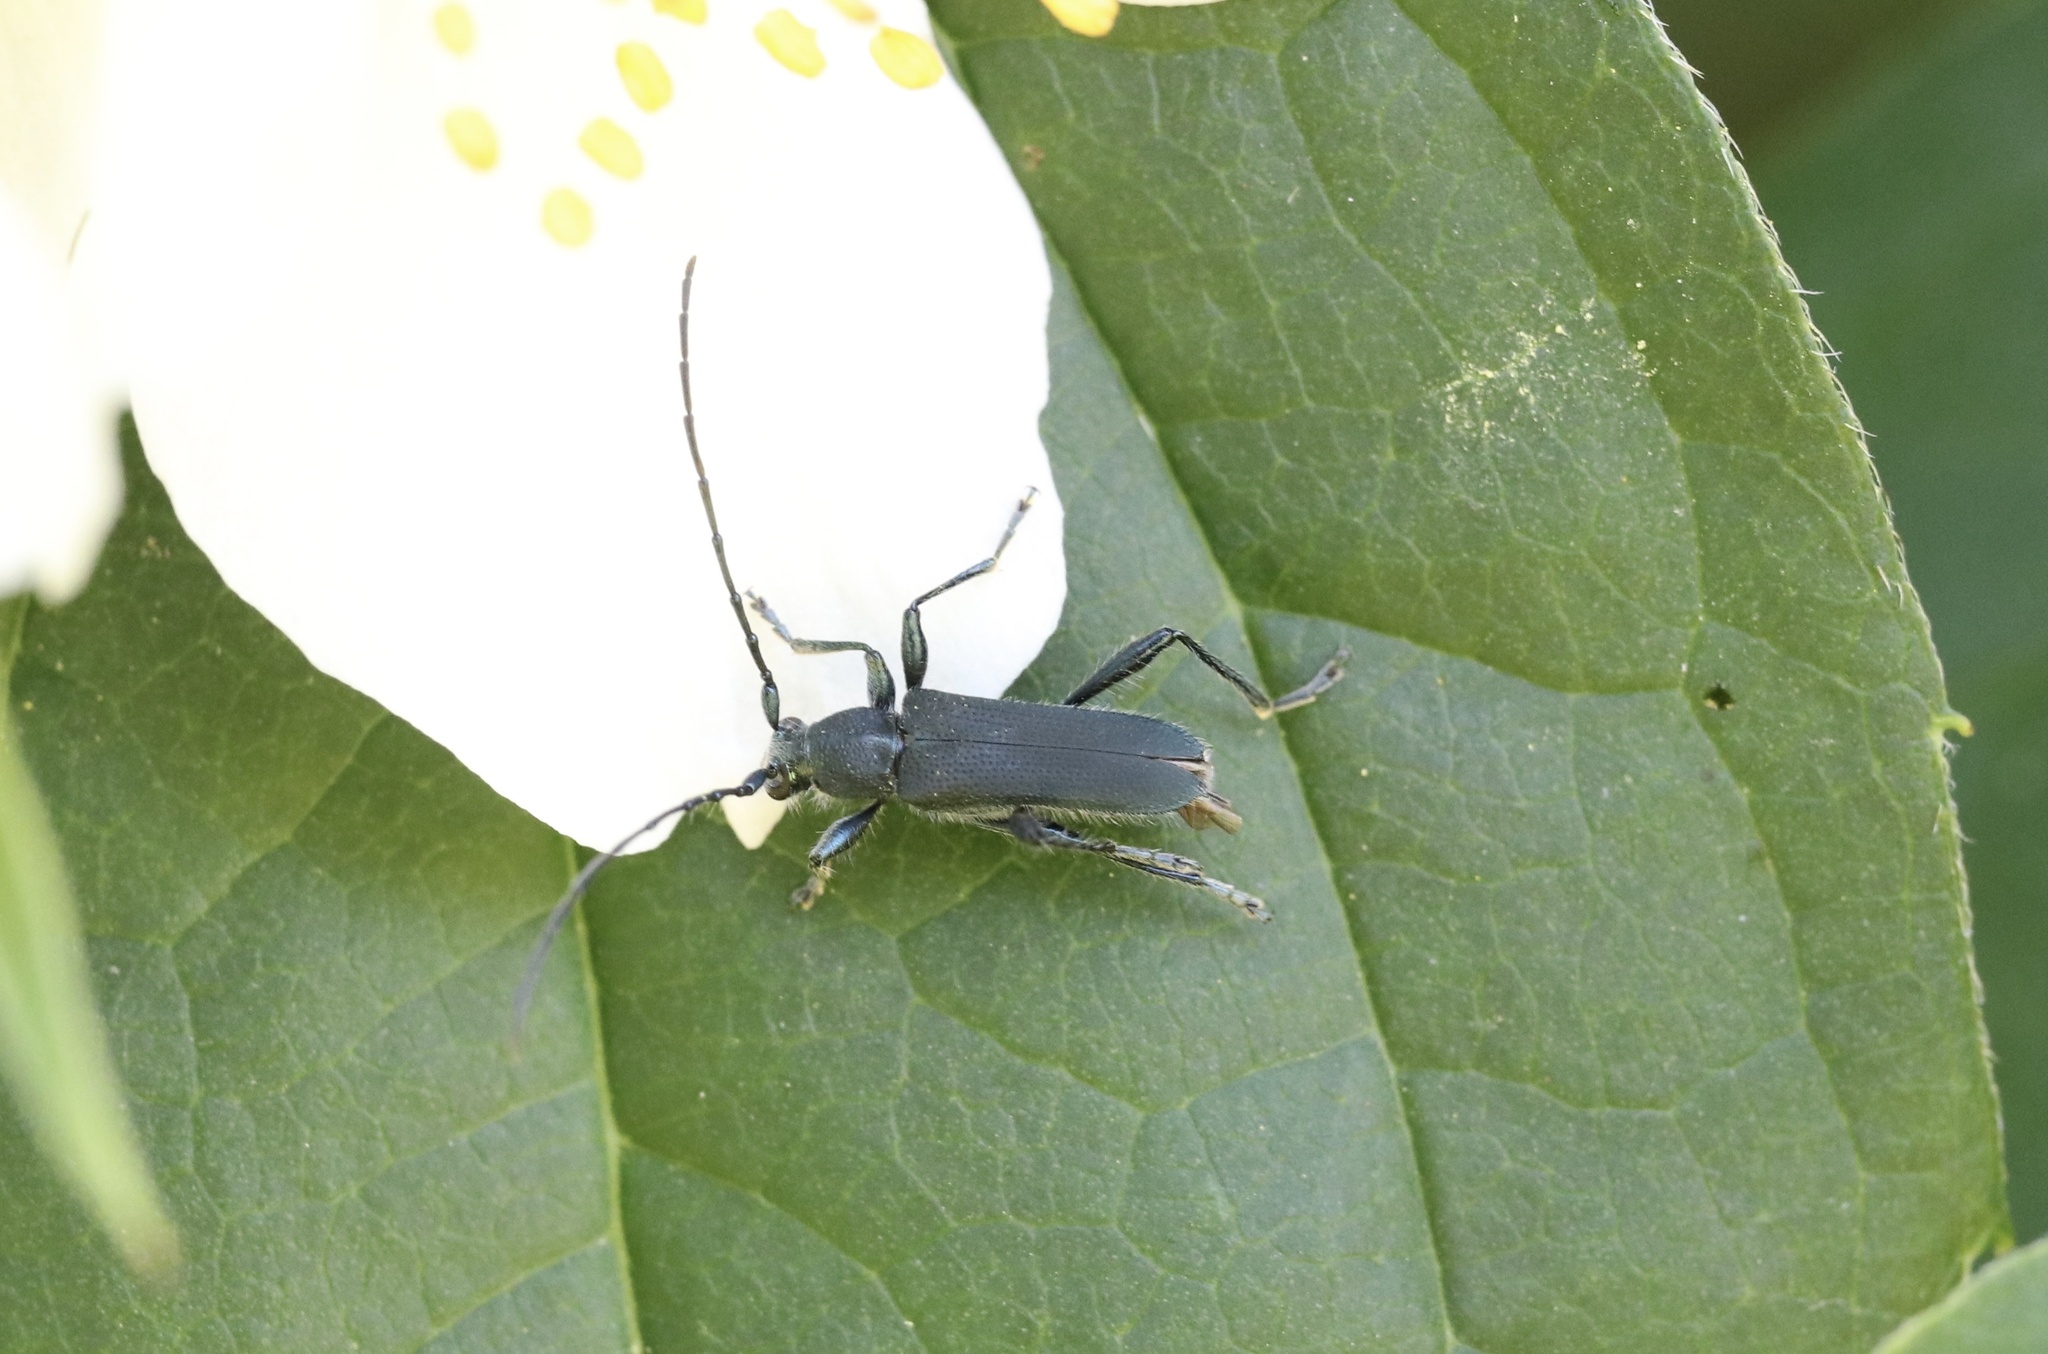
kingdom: Animalia
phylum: Arthropoda
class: Insecta
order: Coleoptera
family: Cerambycidae
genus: Eryphus
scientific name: Eryphus laetus
